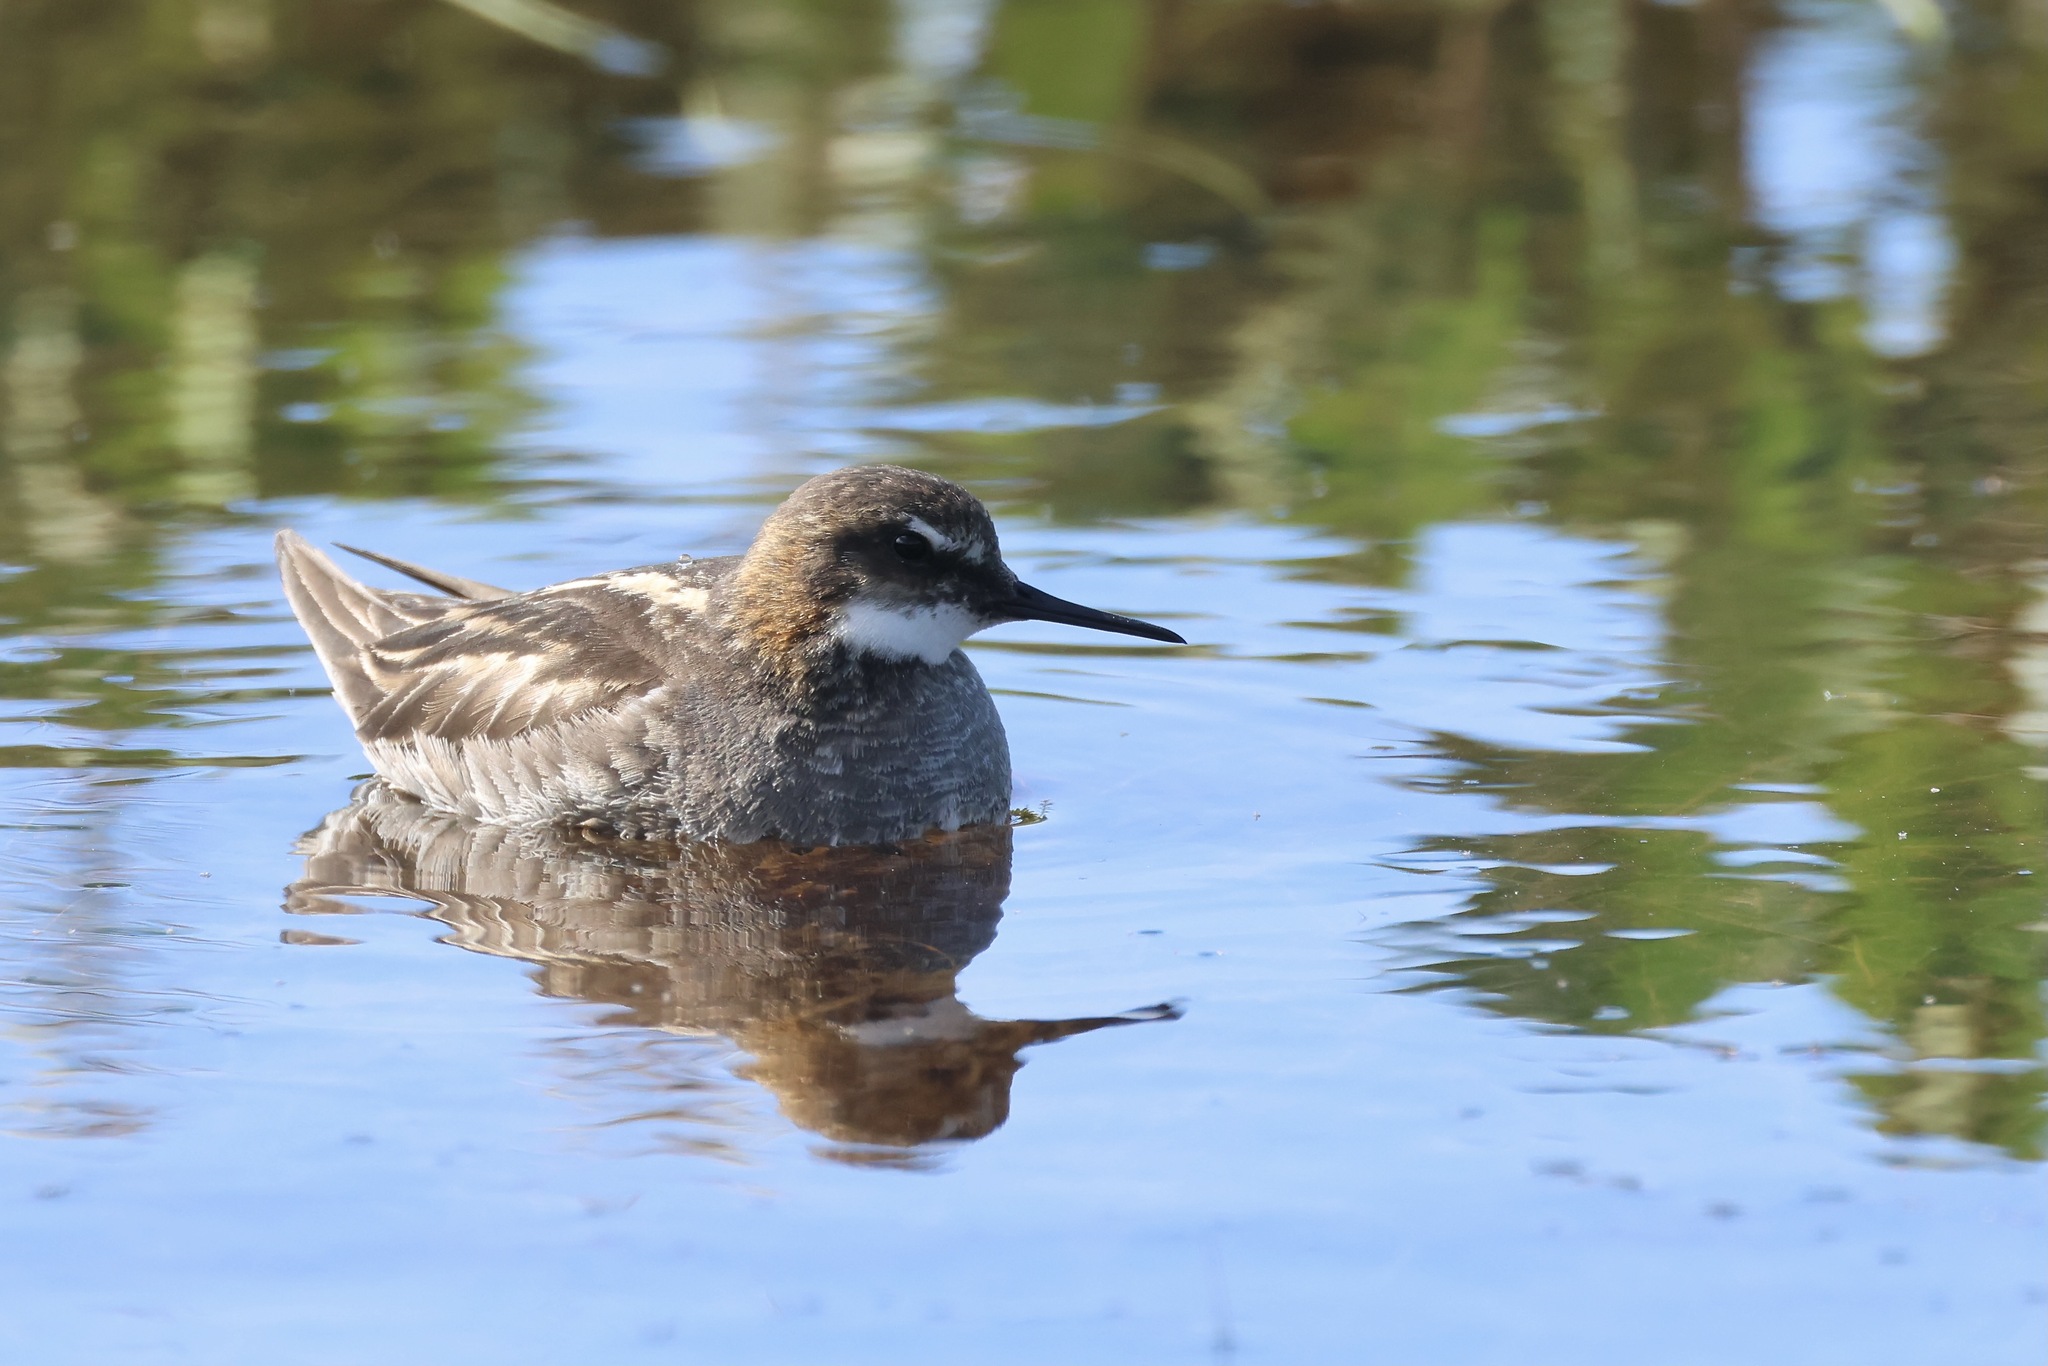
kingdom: Animalia
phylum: Chordata
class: Aves
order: Charadriiformes
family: Scolopacidae
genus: Phalaropus
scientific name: Phalaropus lobatus
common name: Red-necked phalarope
